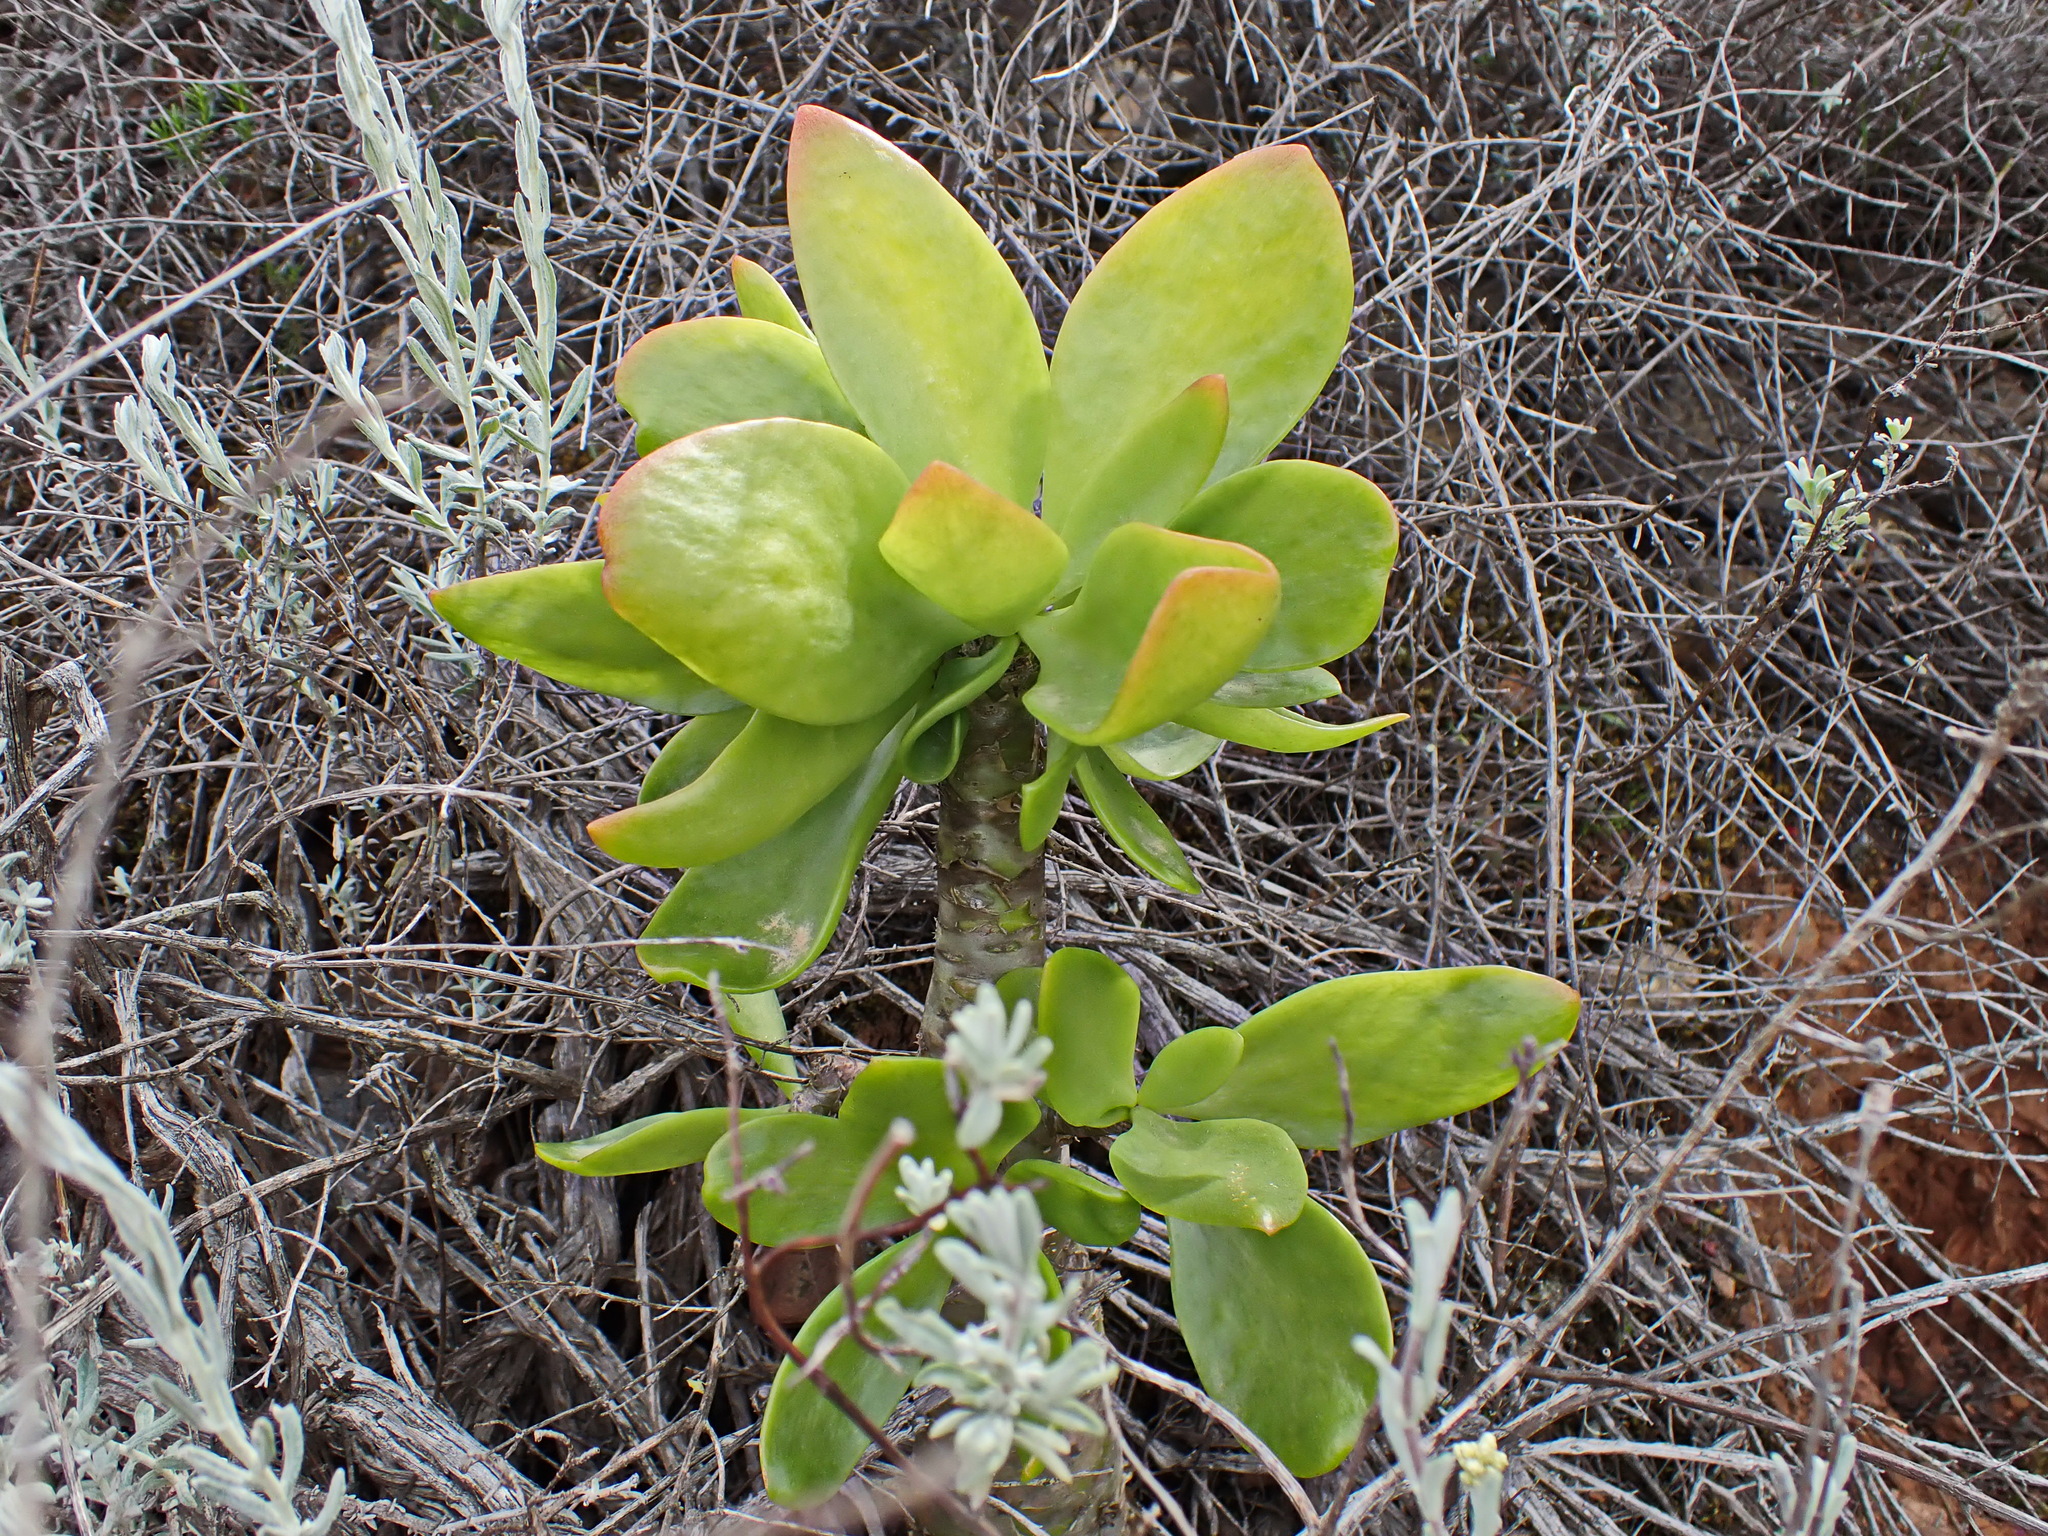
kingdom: Plantae
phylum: Tracheophyta
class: Magnoliopsida
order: Saxifragales
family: Crassulaceae
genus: Tylecodon
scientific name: Tylecodon paniculatus
